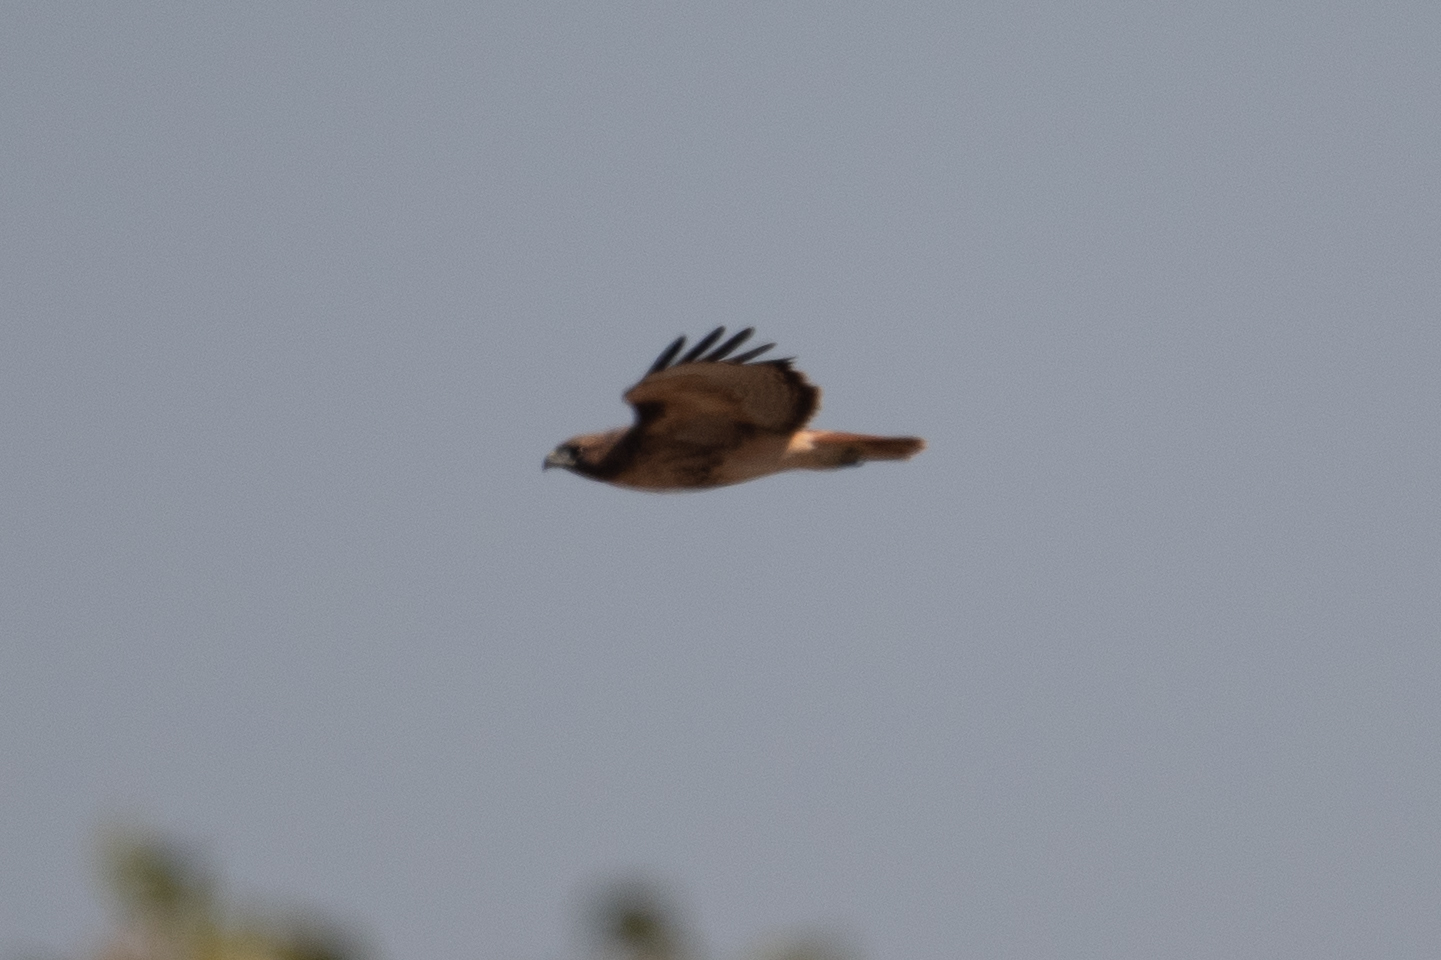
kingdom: Animalia
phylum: Chordata
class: Aves
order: Accipitriformes
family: Accipitridae
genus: Buteo
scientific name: Buteo jamaicensis
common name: Red-tailed hawk
